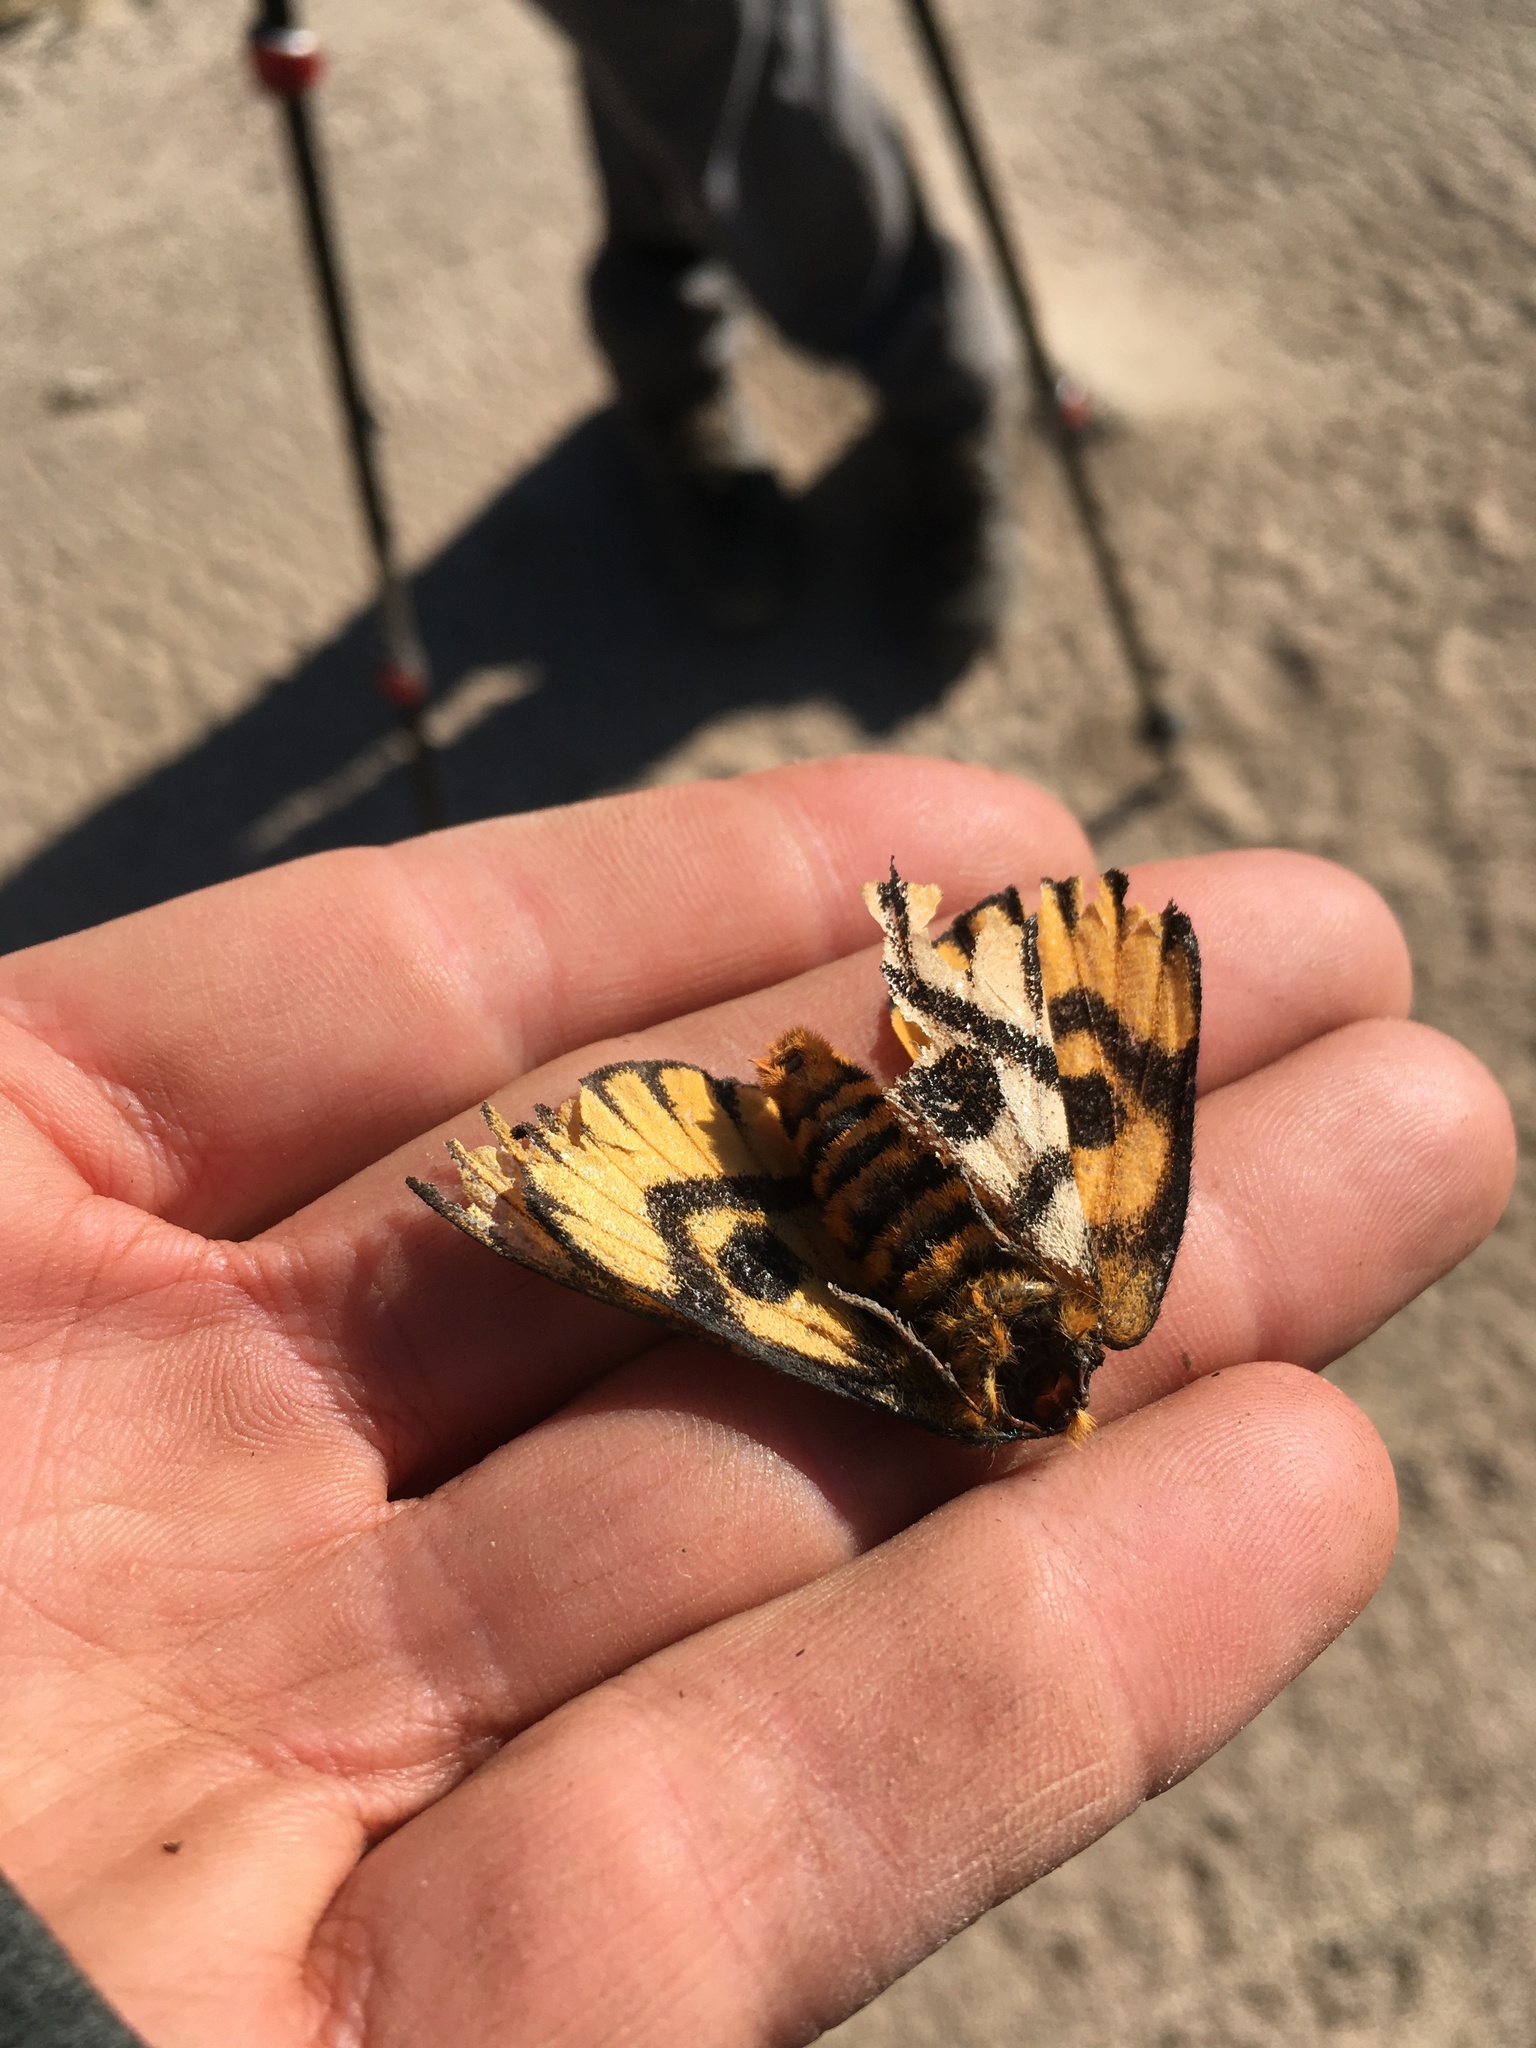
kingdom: Animalia
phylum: Arthropoda
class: Insecta
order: Lepidoptera
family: Saturniidae
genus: Hemileuca
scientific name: Hemileuca eglanterina
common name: Western sheepmoth
